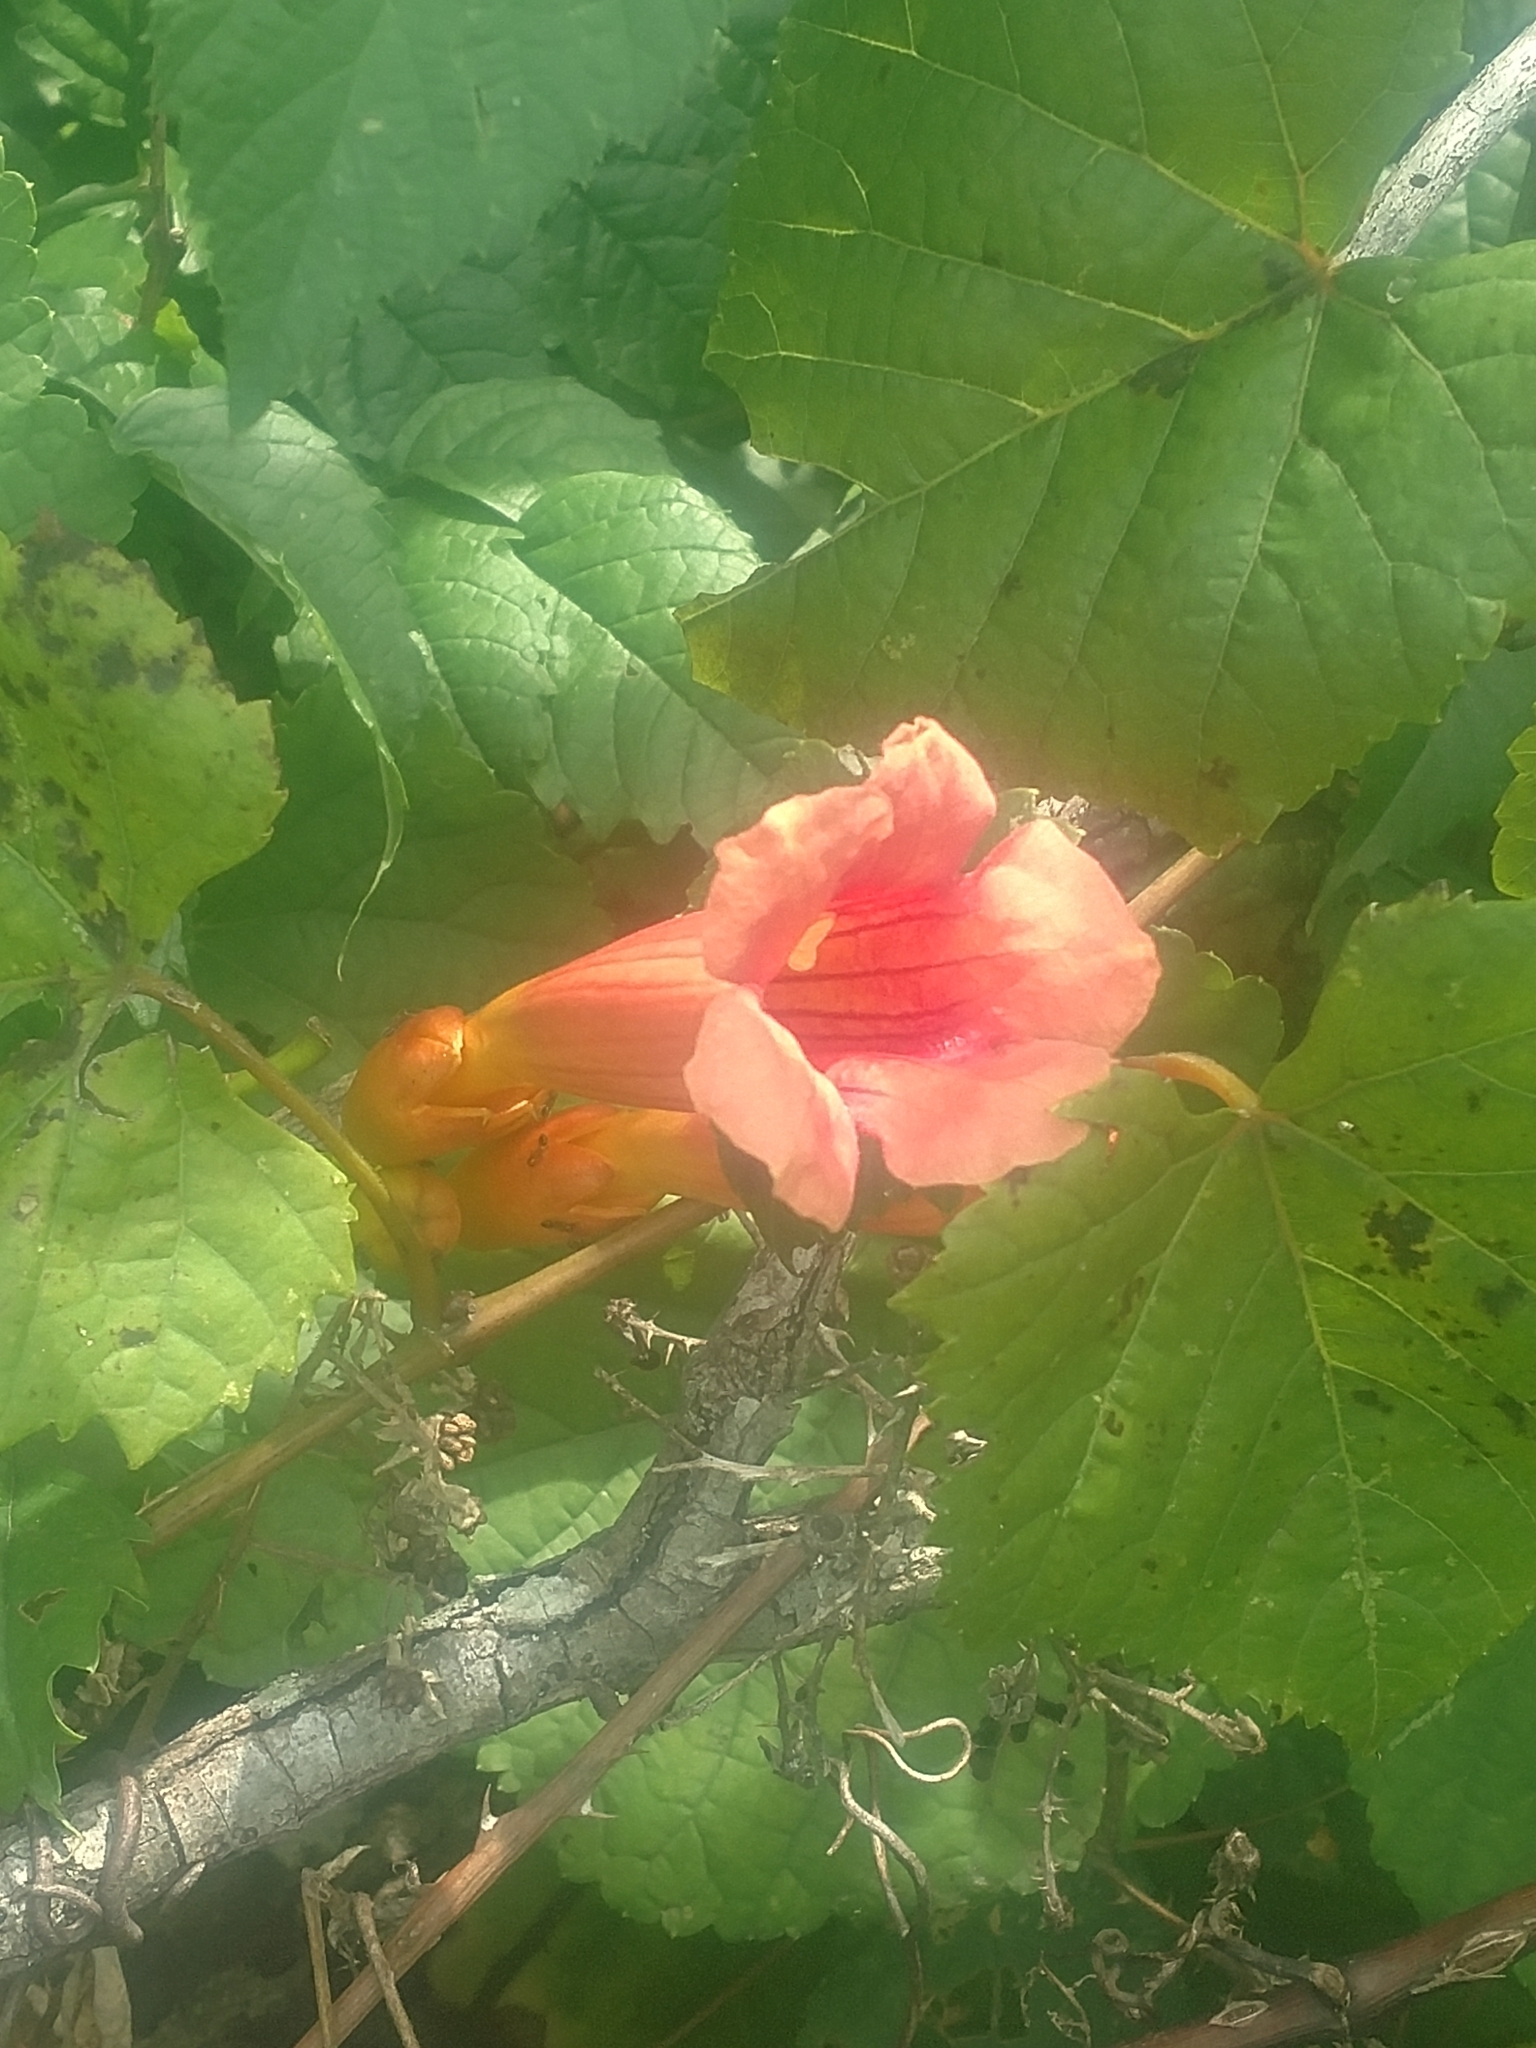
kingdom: Plantae
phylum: Tracheophyta
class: Magnoliopsida
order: Lamiales
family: Bignoniaceae
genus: Campsis
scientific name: Campsis radicans
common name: Trumpet-creeper
